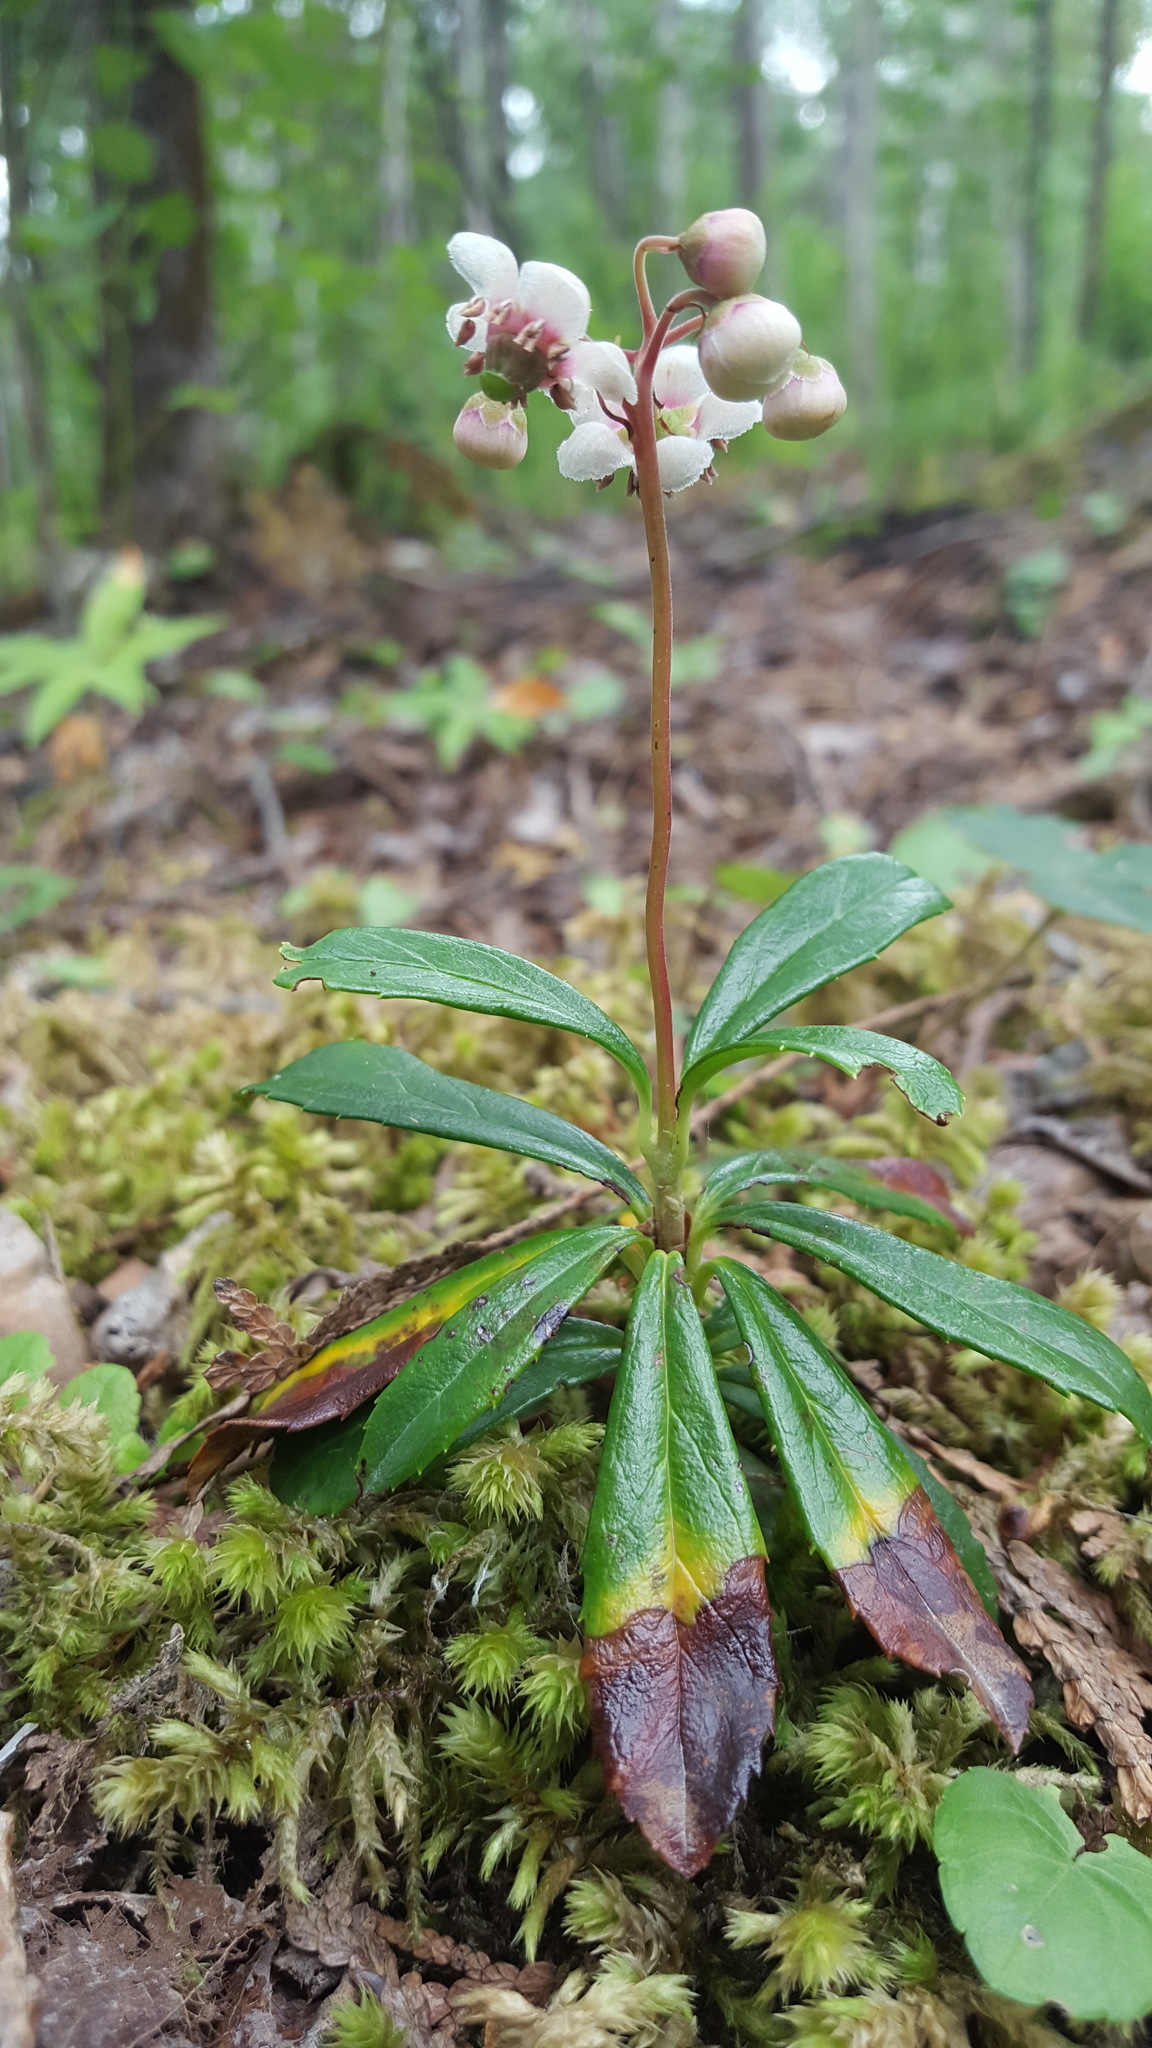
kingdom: Plantae
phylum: Tracheophyta
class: Magnoliopsida
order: Ericales
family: Ericaceae
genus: Chimaphila
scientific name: Chimaphila umbellata
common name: Pipsissewa
